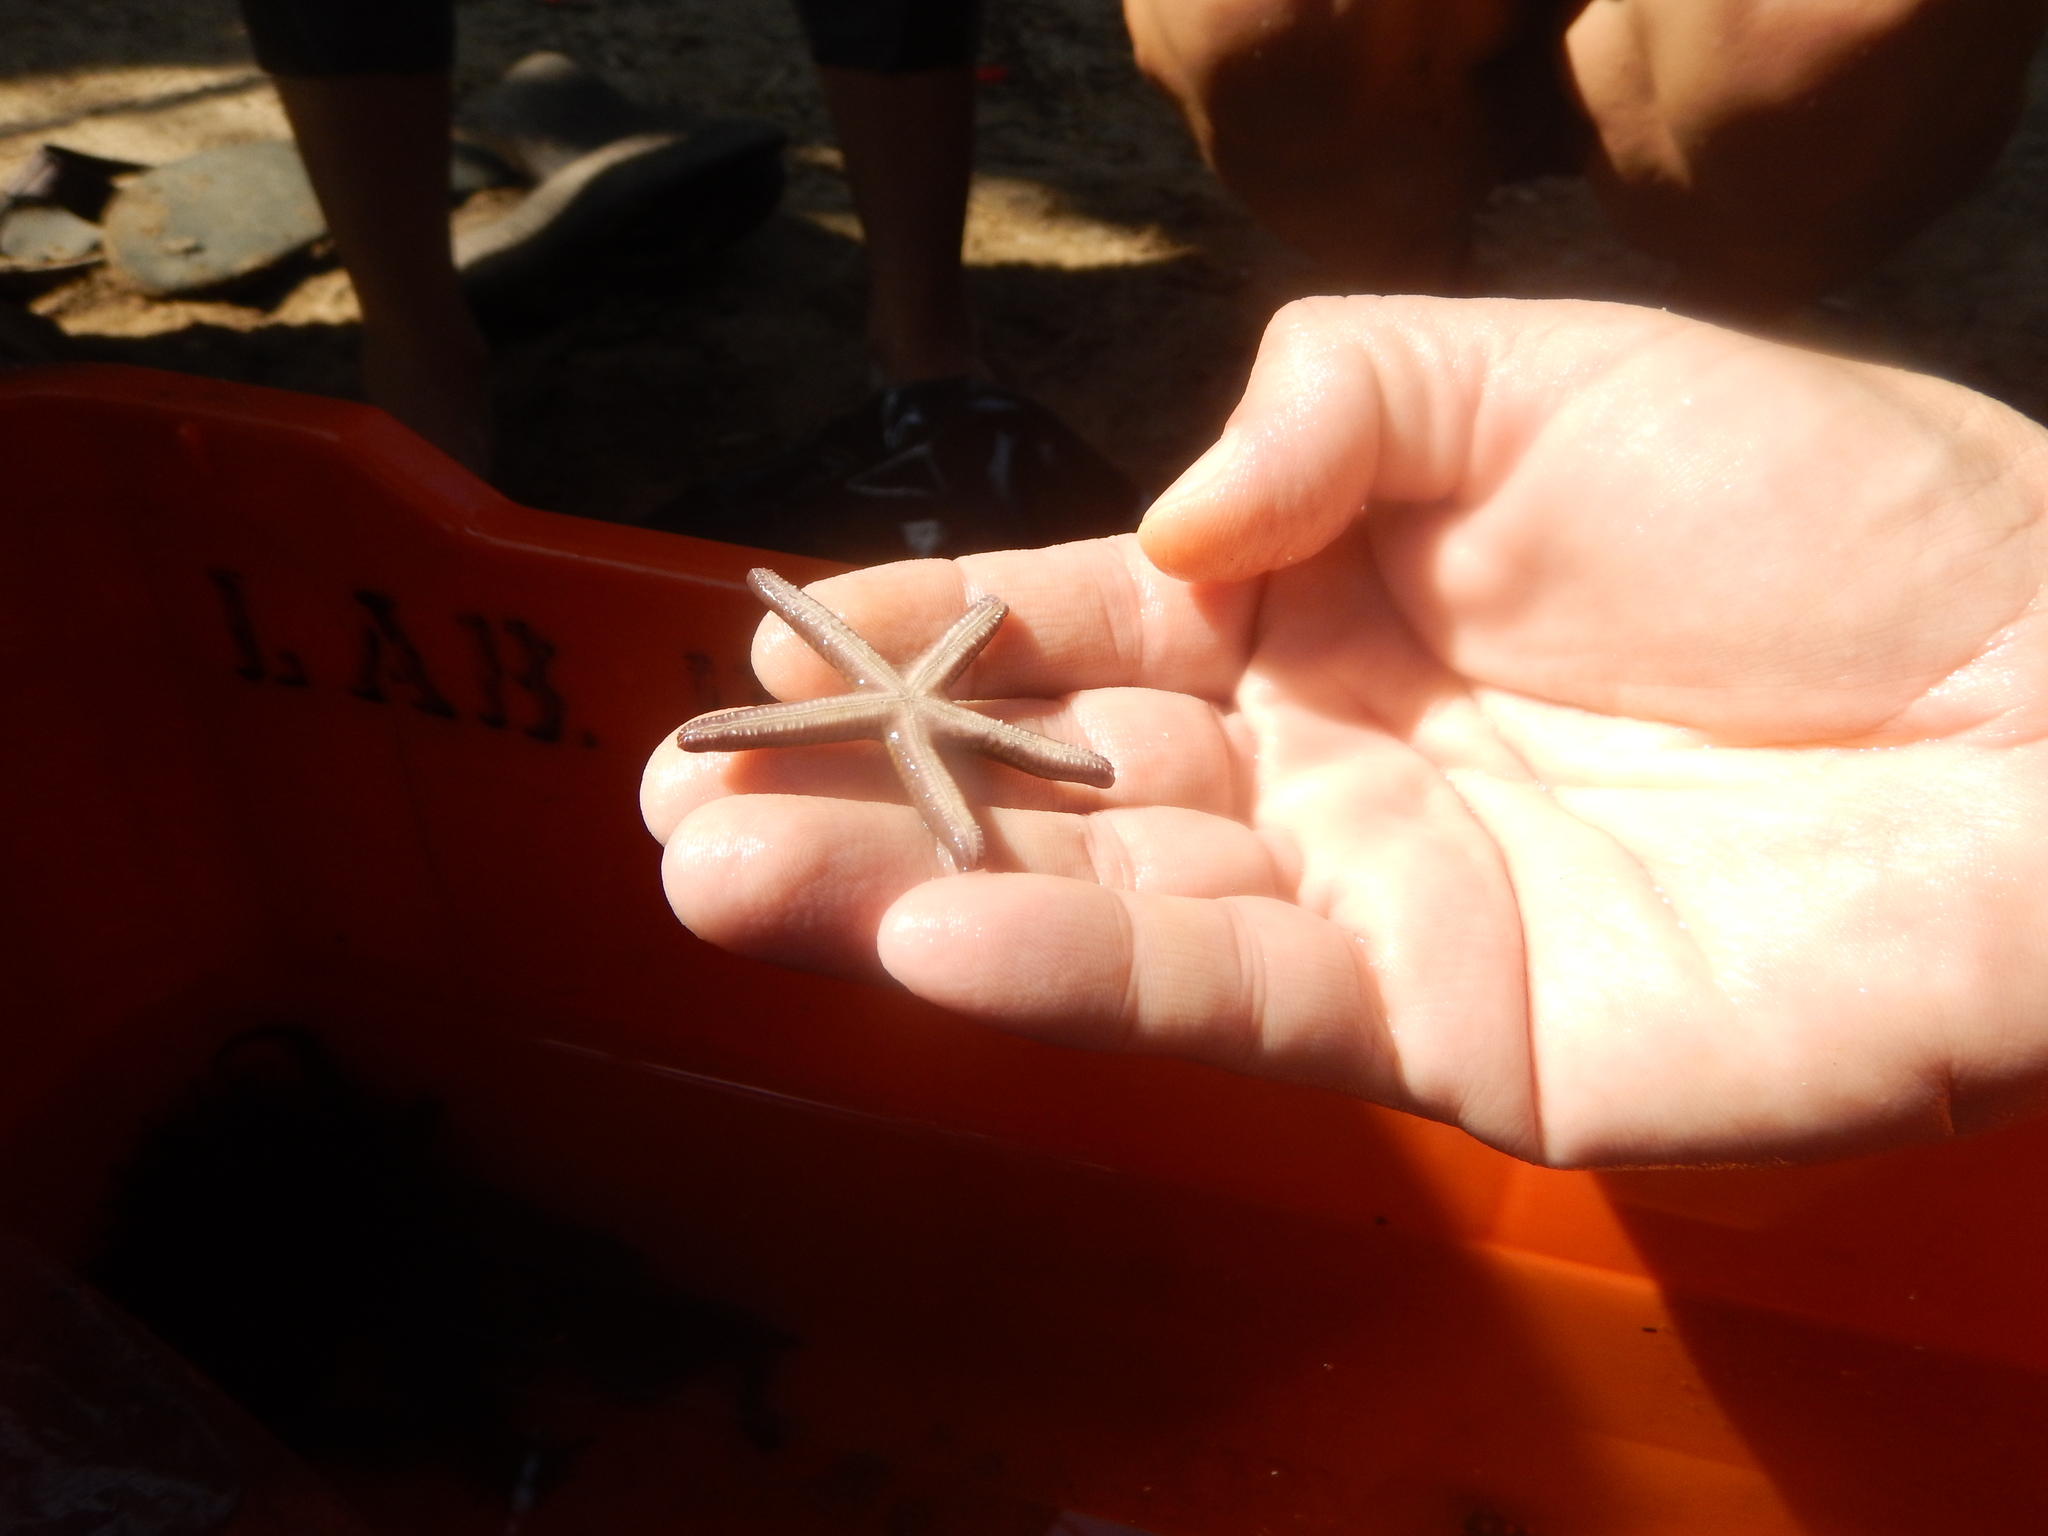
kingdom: Animalia
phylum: Echinodermata
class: Asteroidea
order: Valvatida
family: Ophidiasteridae
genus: Pharia
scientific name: Pharia pyramidata
